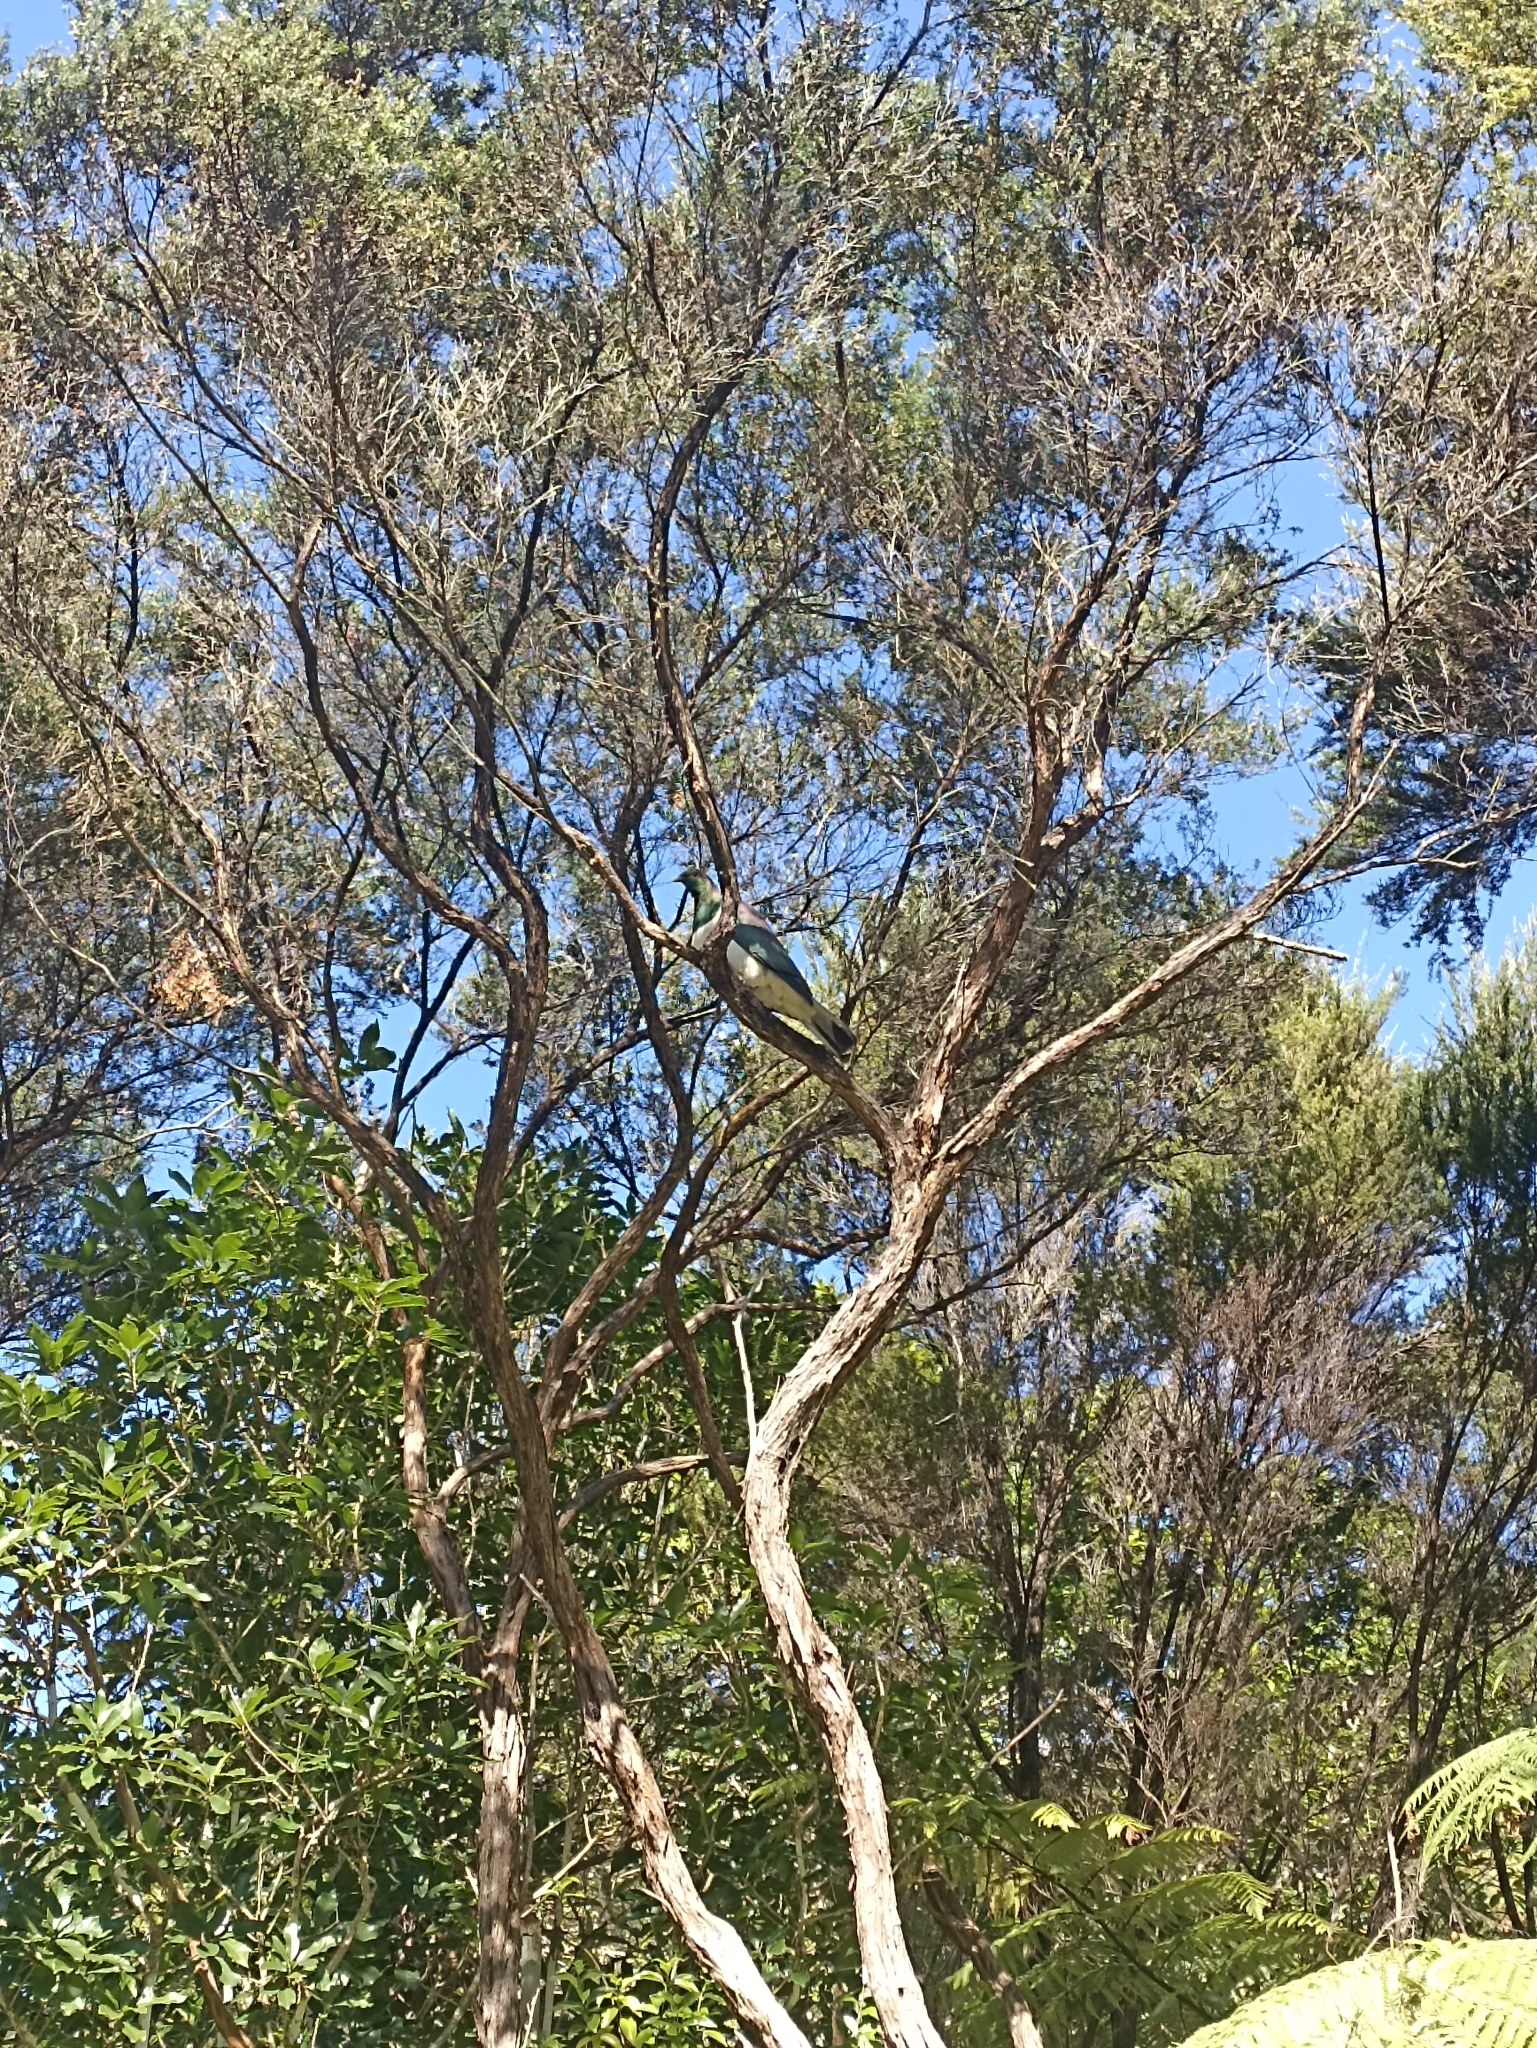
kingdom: Animalia
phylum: Chordata
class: Aves
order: Columbiformes
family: Columbidae
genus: Hemiphaga
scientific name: Hemiphaga novaeseelandiae
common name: New zealand pigeon
